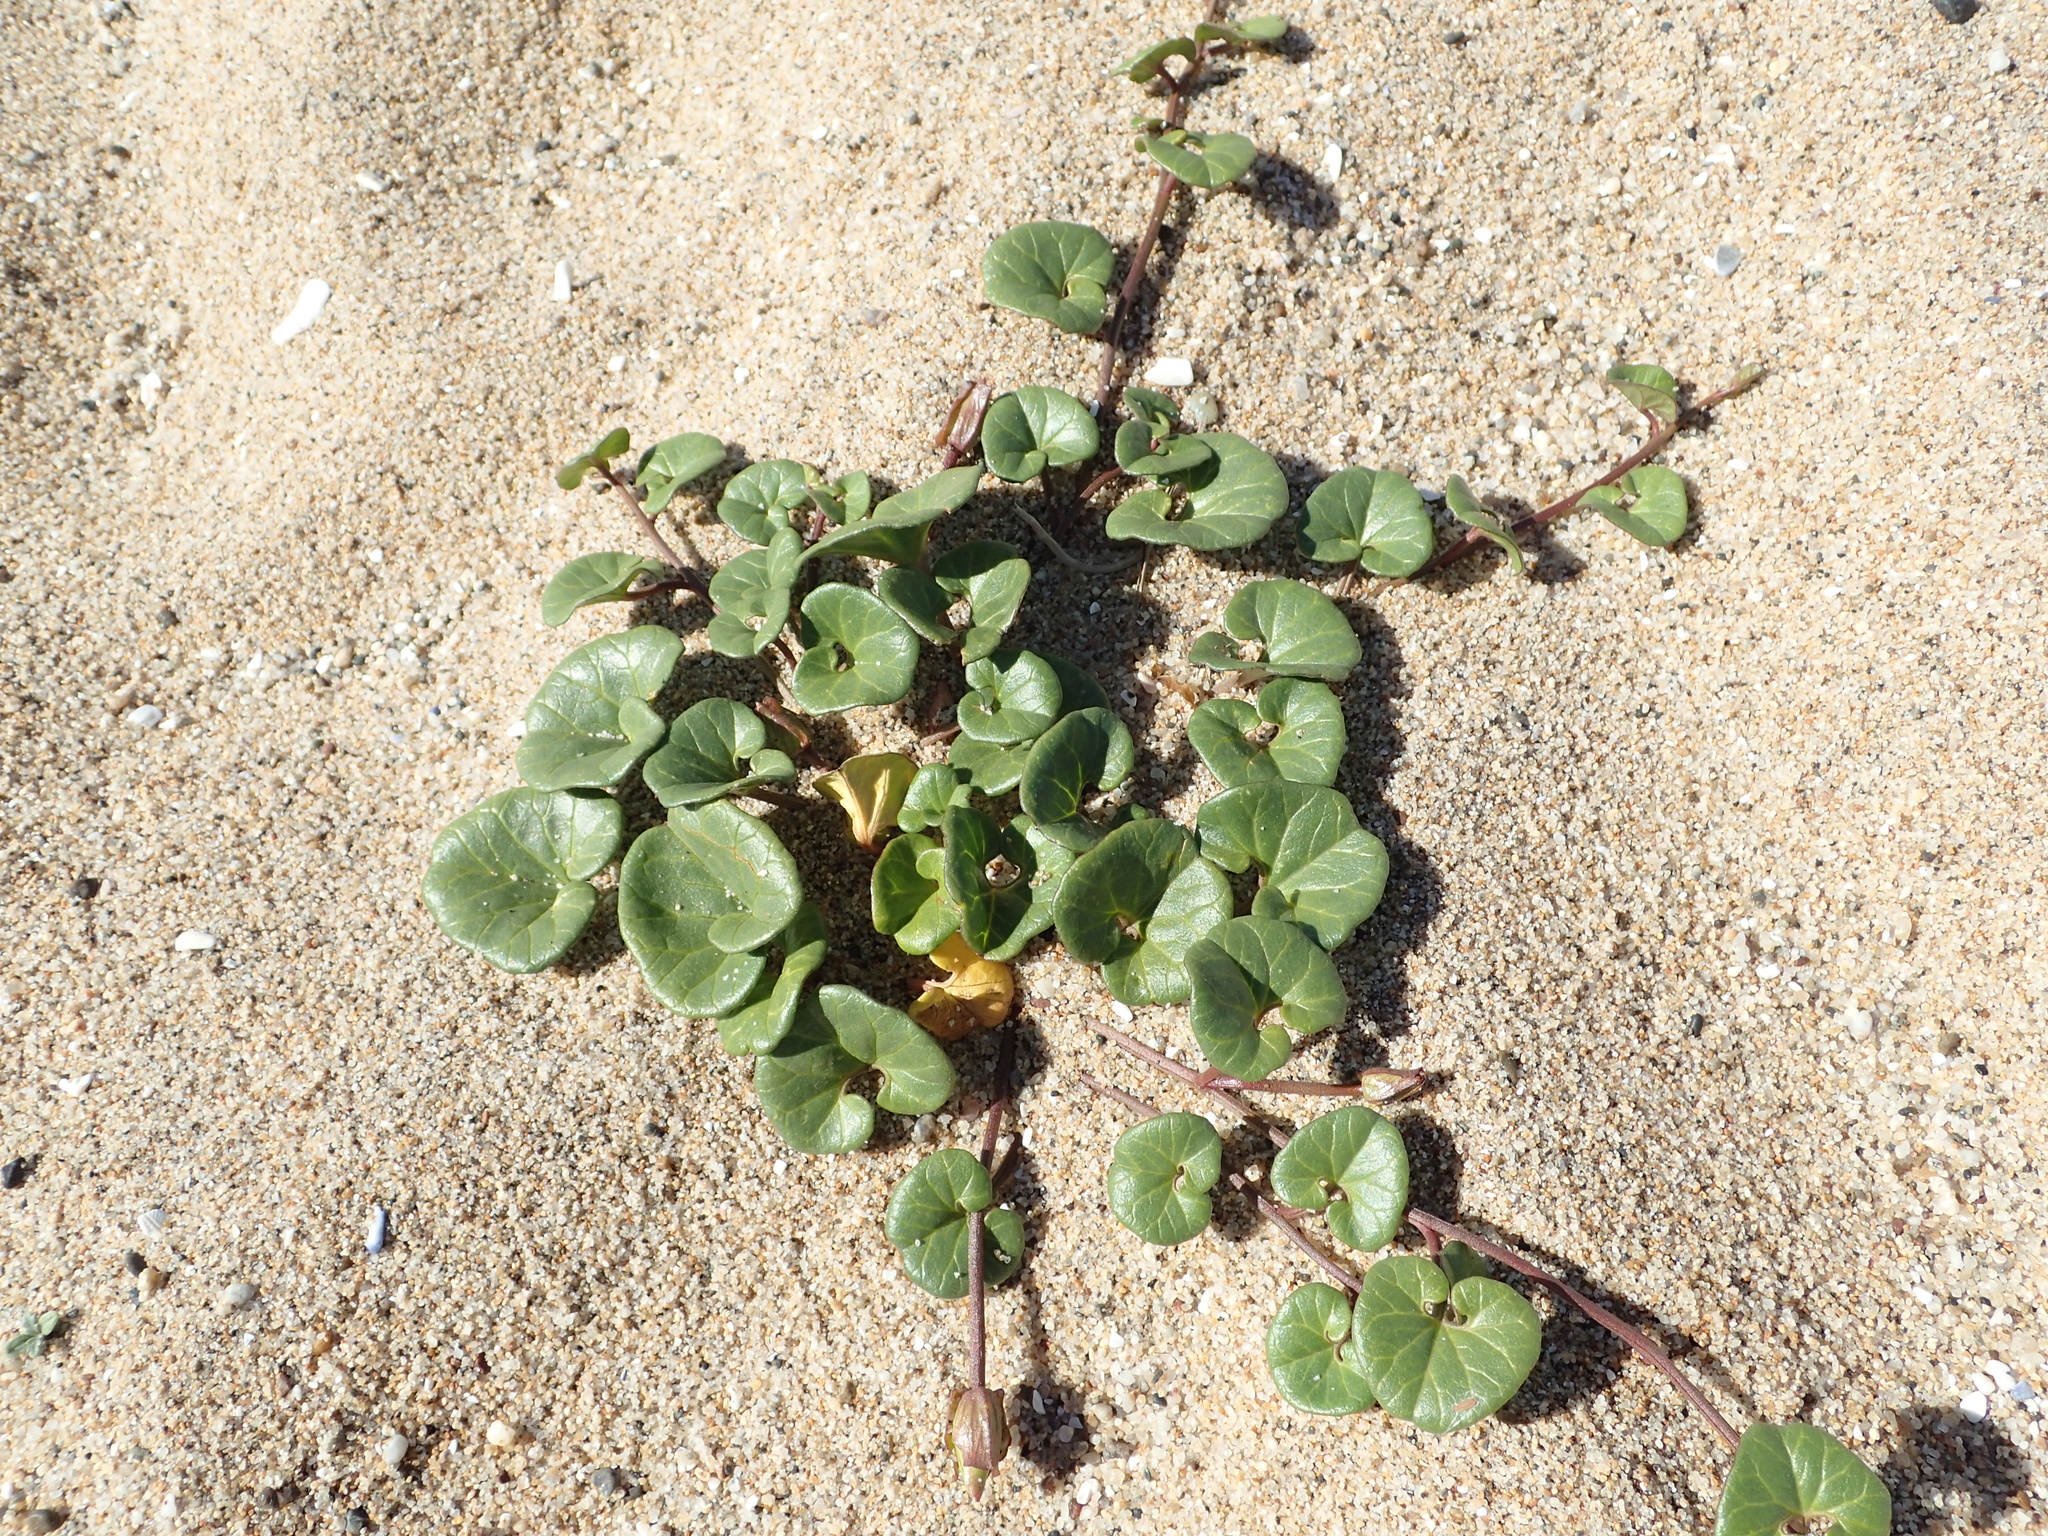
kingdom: Plantae
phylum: Tracheophyta
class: Magnoliopsida
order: Solanales
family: Convolvulaceae
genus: Calystegia
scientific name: Calystegia soldanella
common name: Sea bindweed
